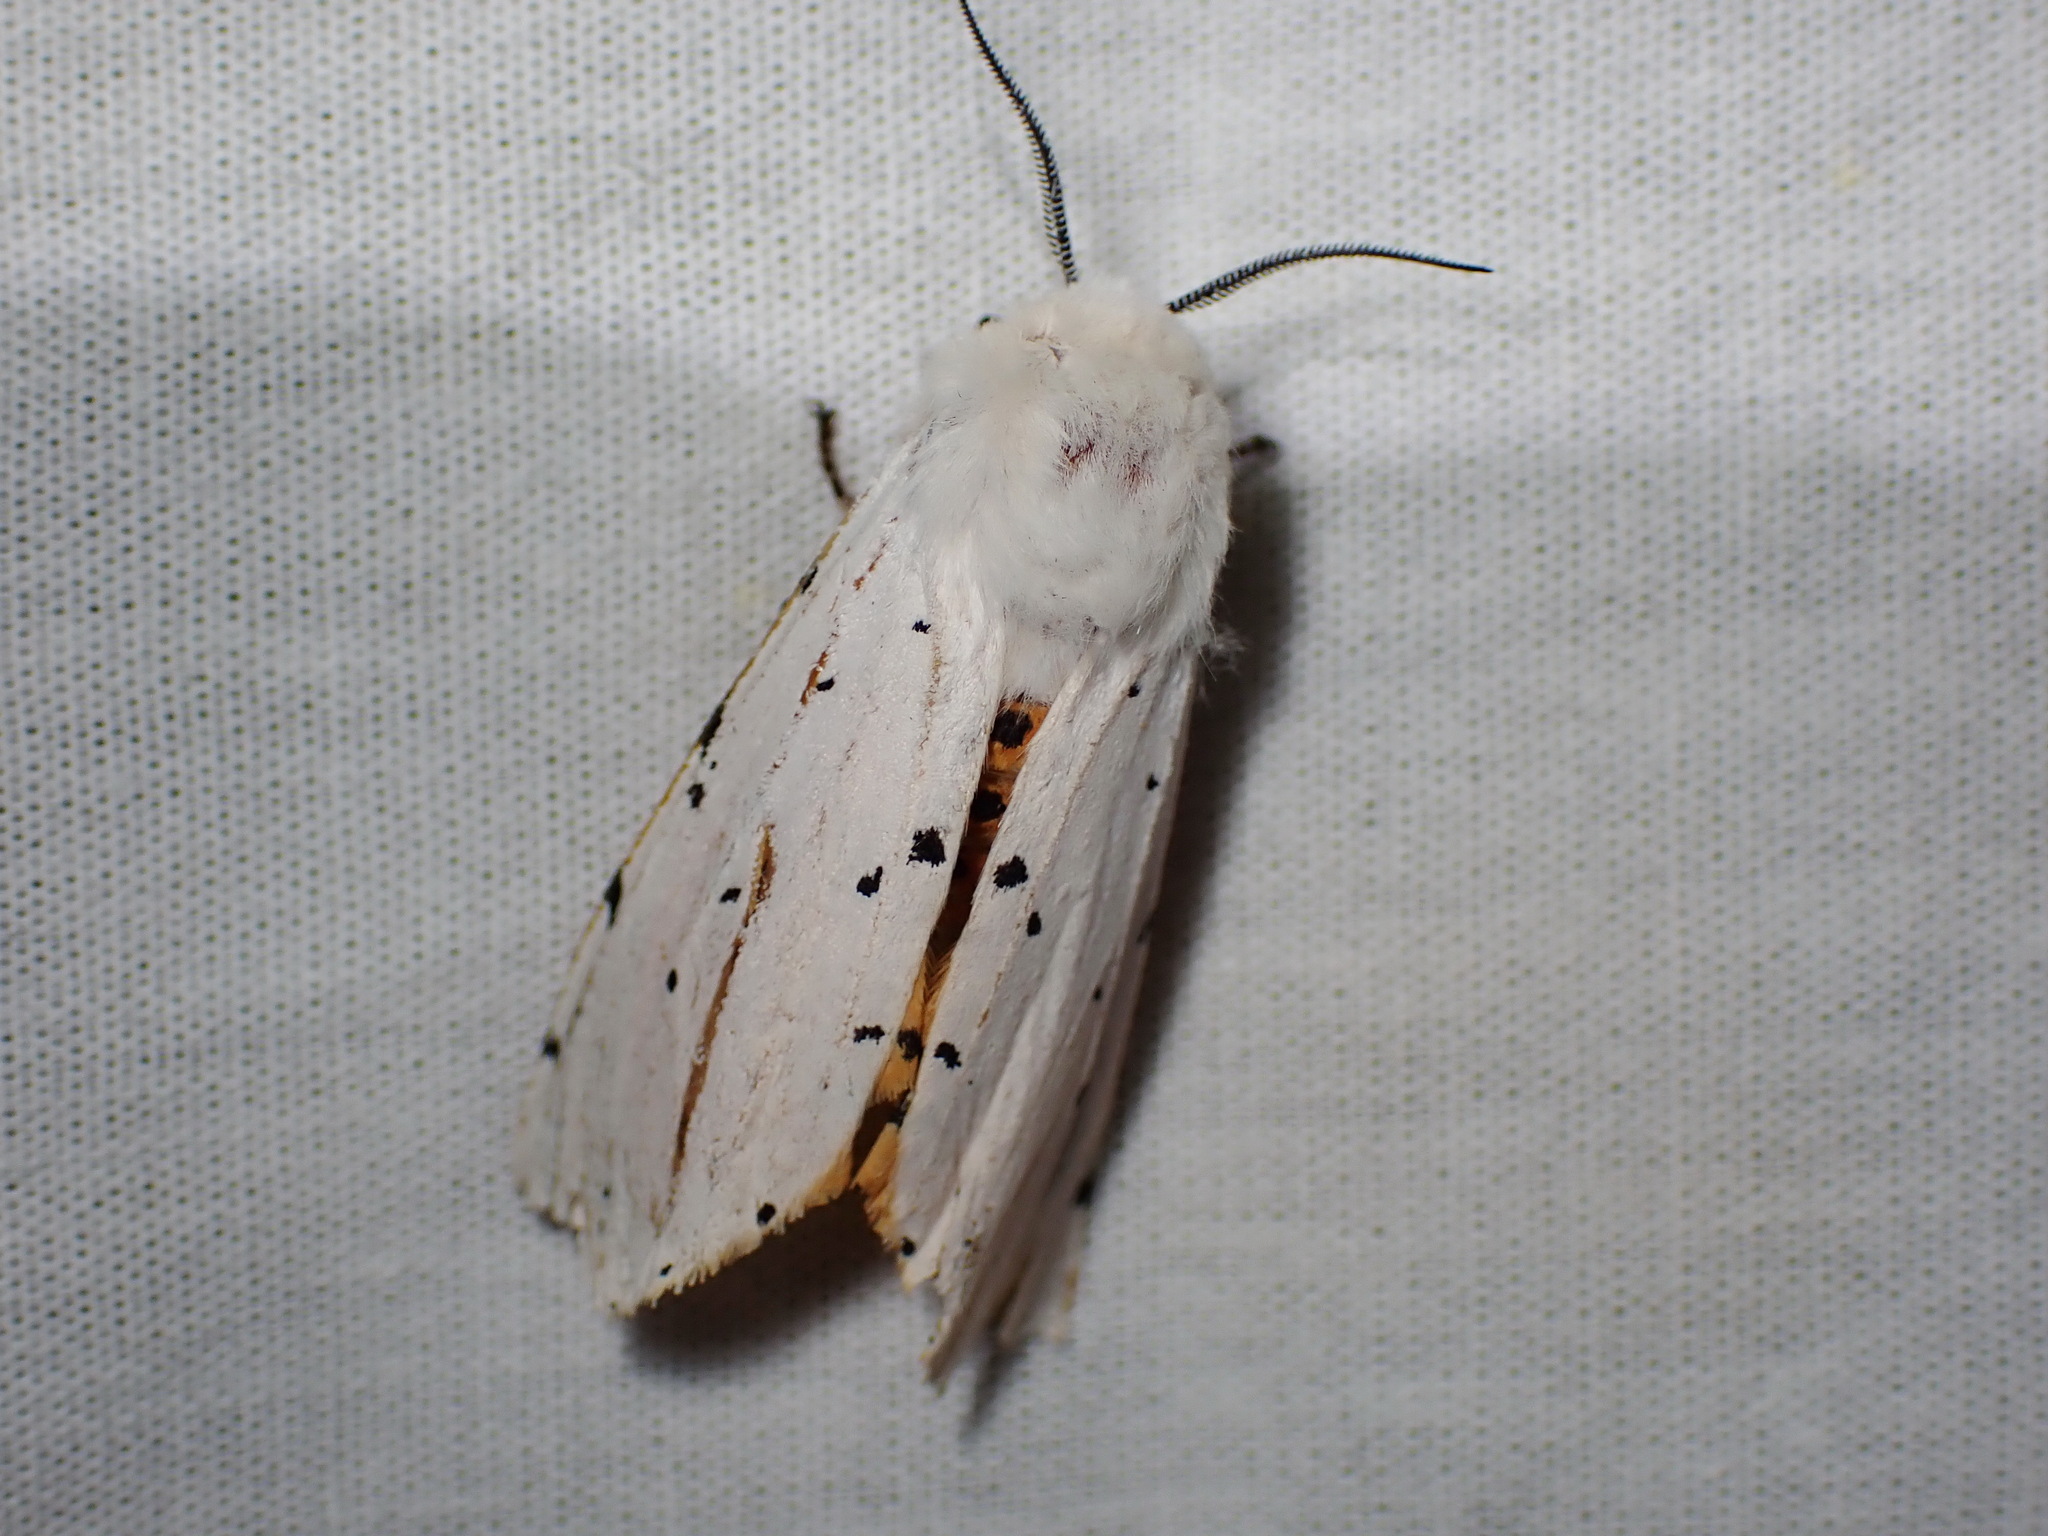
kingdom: Animalia
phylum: Arthropoda
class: Insecta
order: Lepidoptera
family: Erebidae
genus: Estigmene
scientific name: Estigmene acrea
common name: Salt marsh moth
